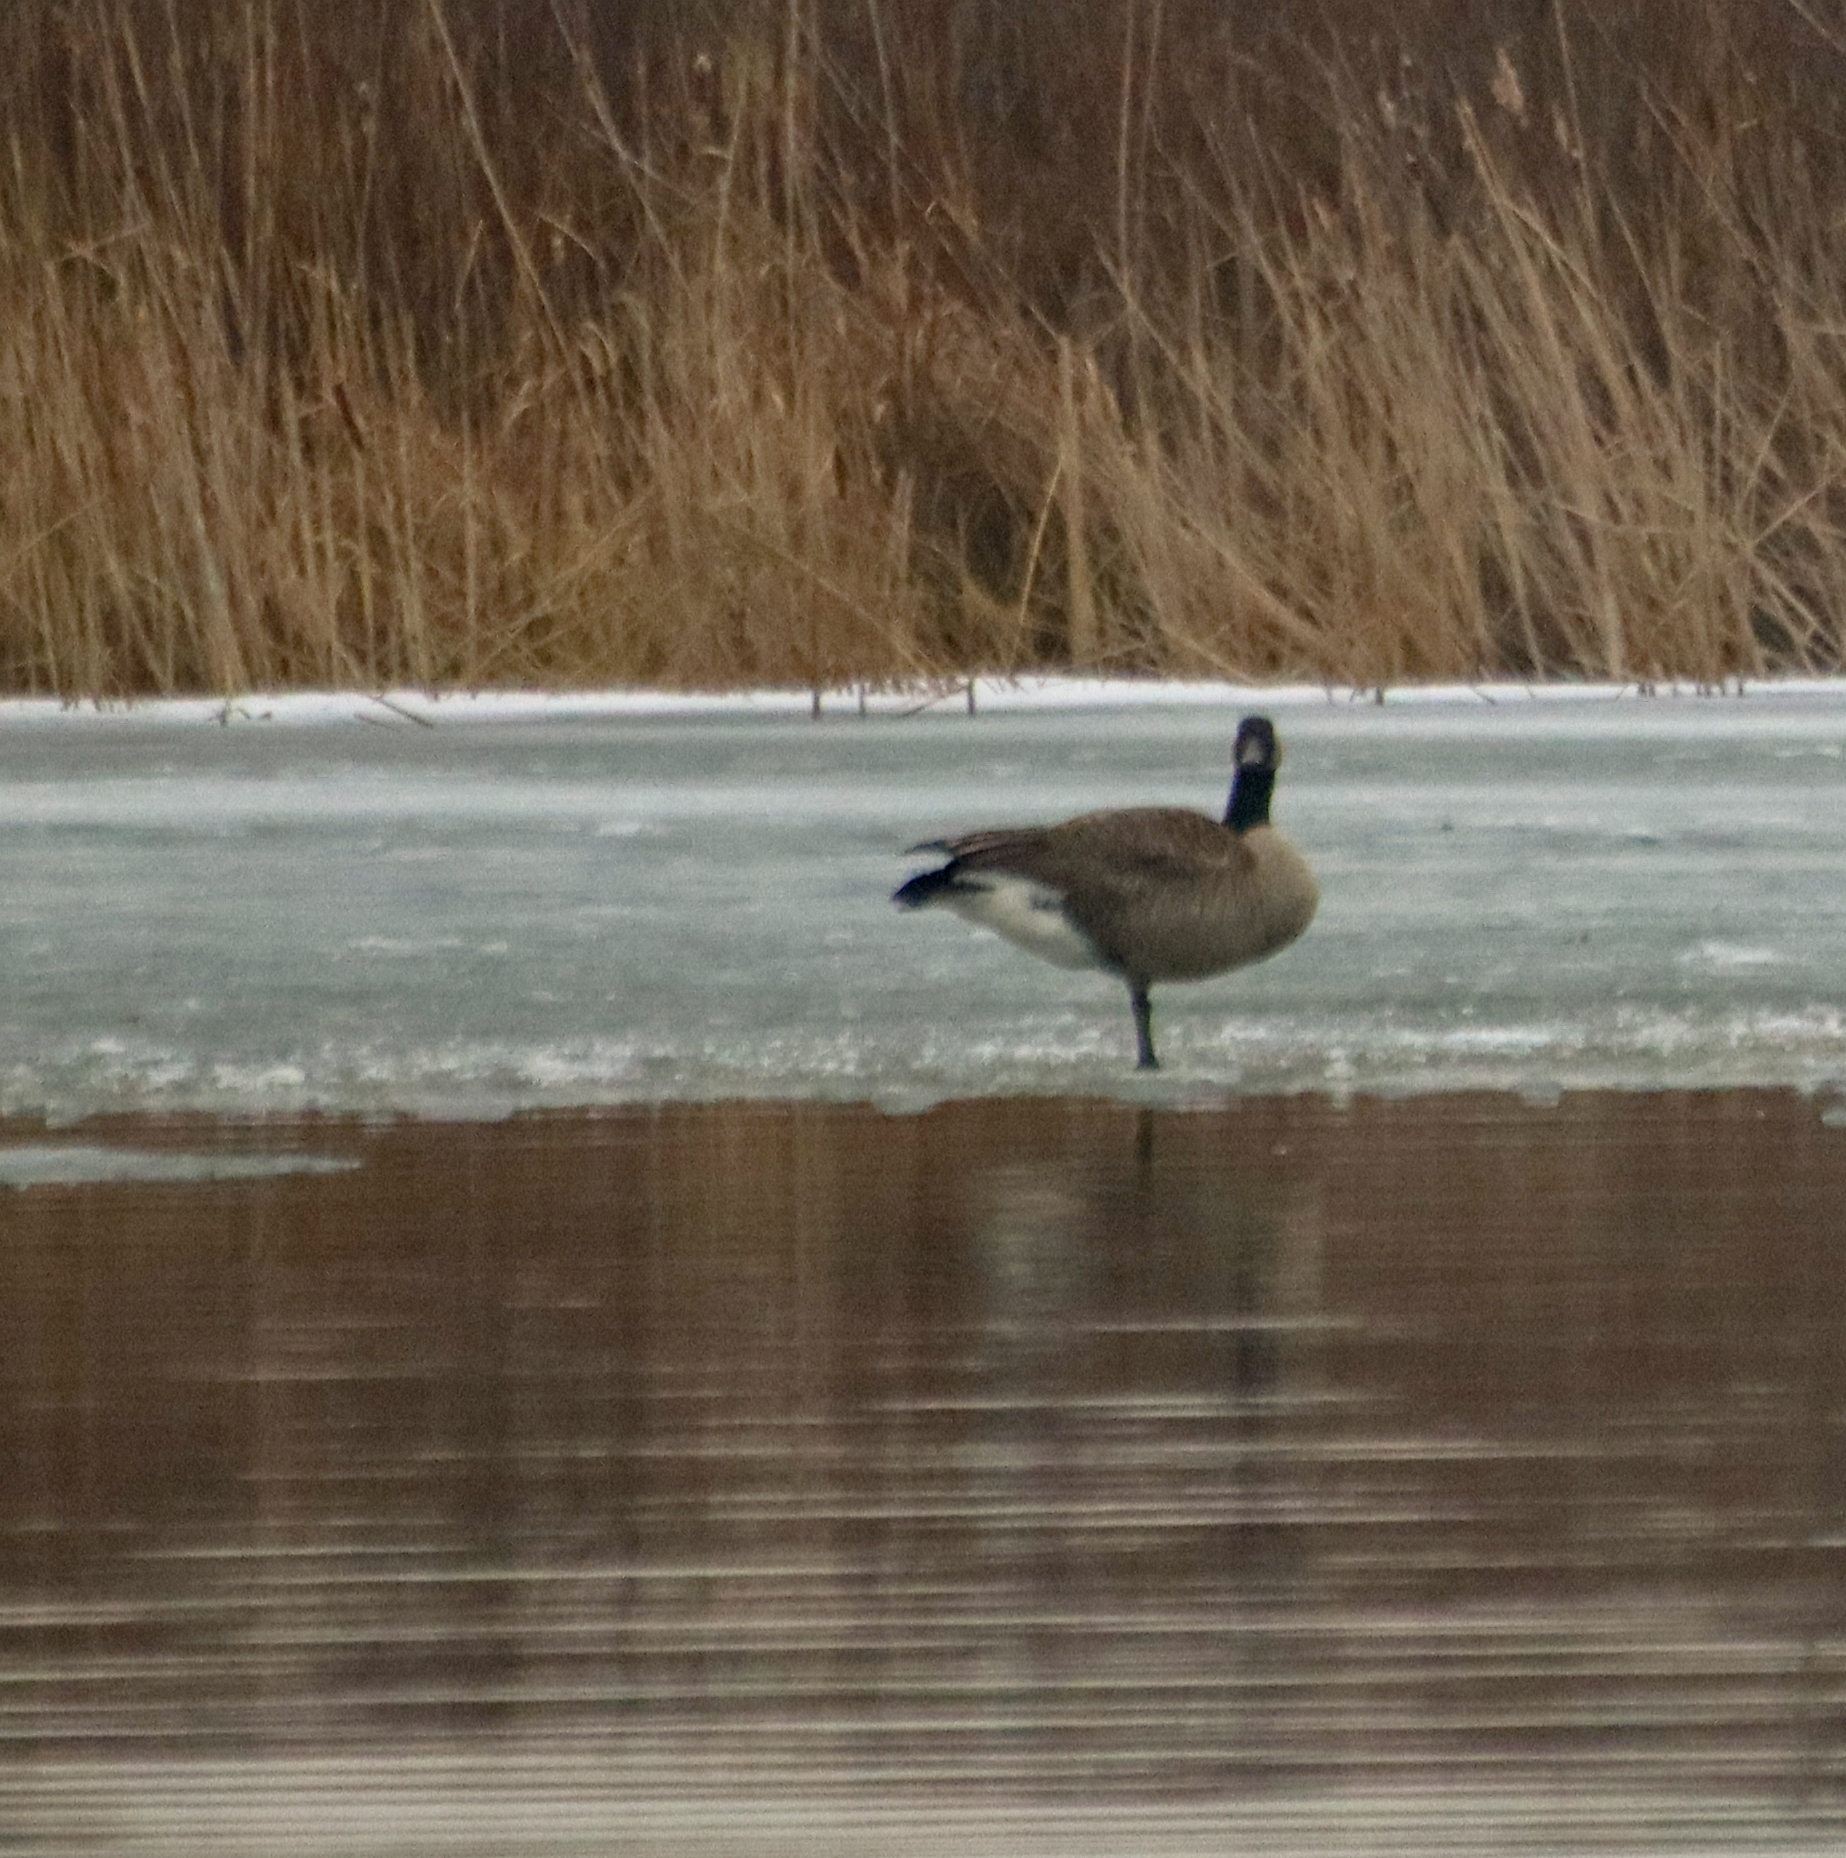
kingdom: Animalia
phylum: Chordata
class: Aves
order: Anseriformes
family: Anatidae
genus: Branta
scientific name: Branta canadensis
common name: Canada goose
